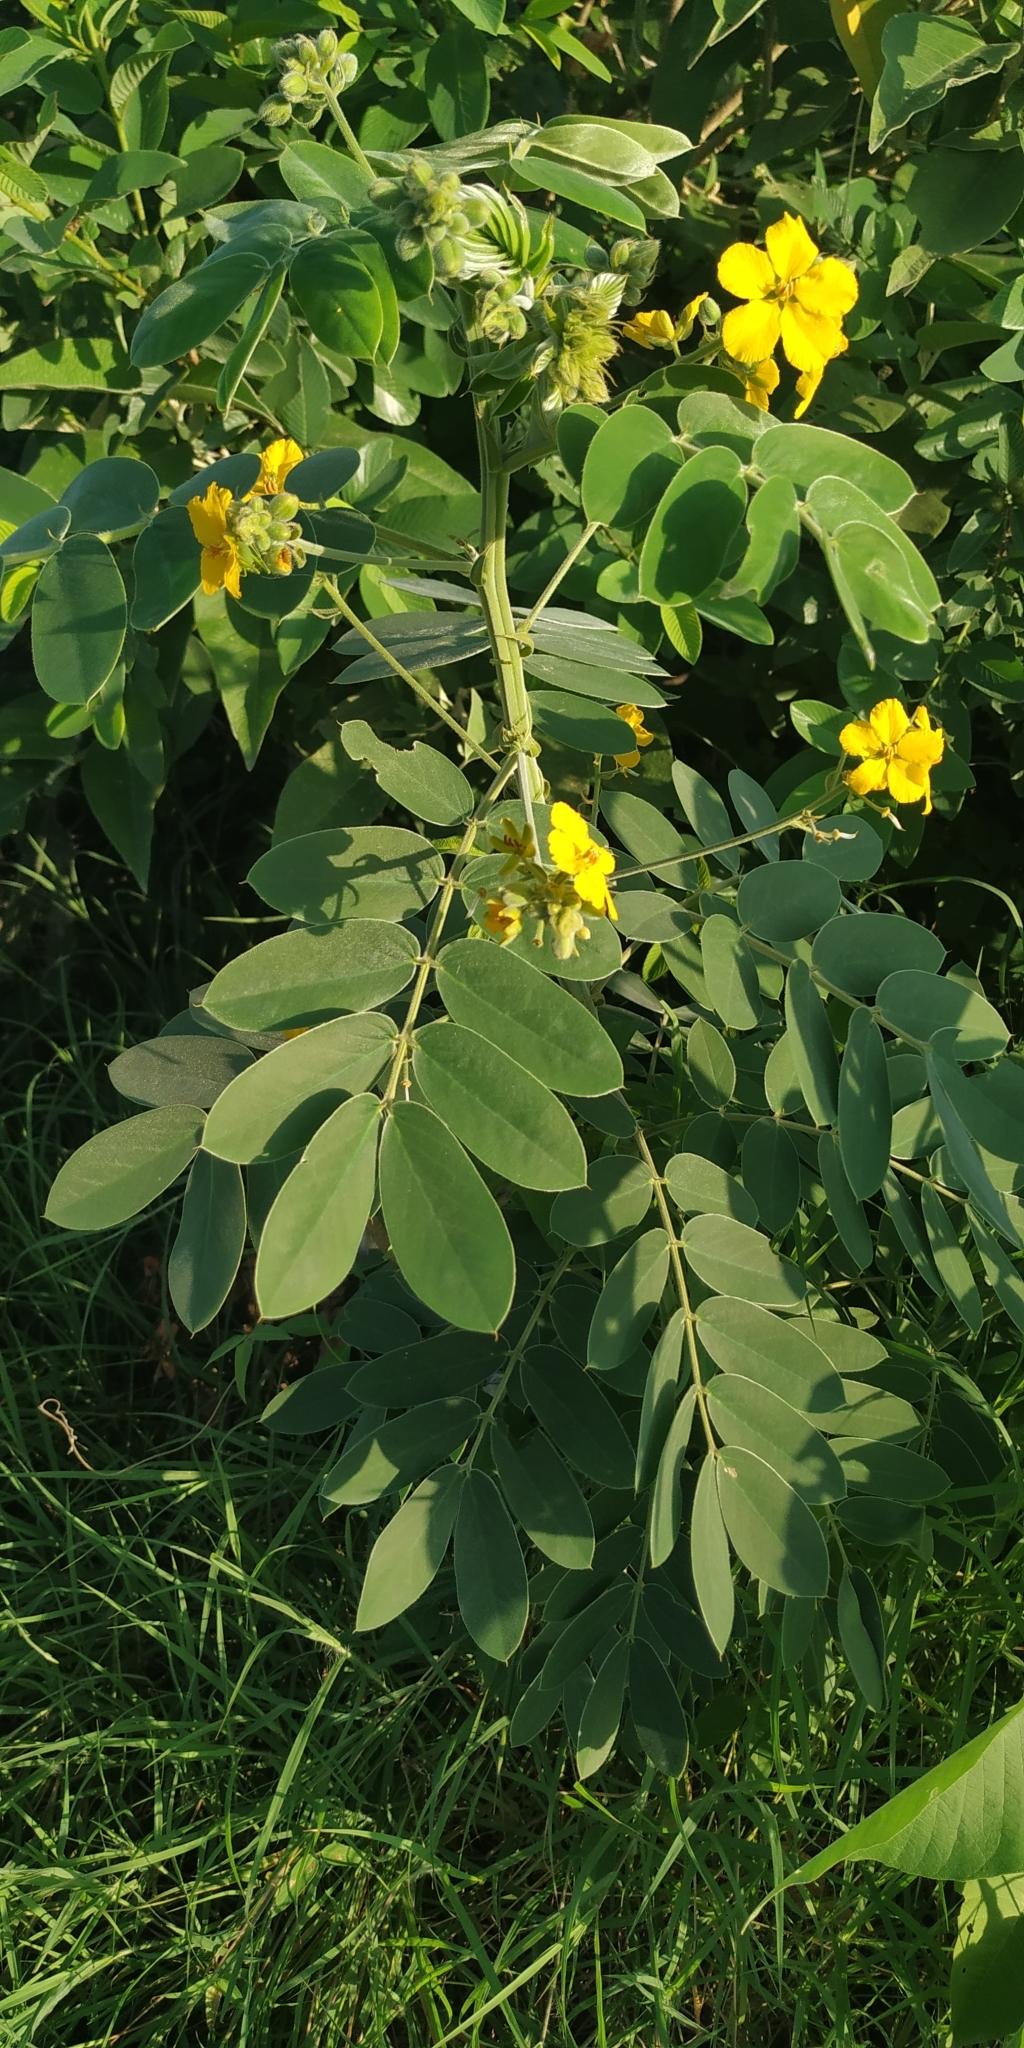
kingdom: Plantae
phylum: Tracheophyta
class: Magnoliopsida
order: Fabales
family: Fabaceae
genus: Senna
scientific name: Senna lindheimeriana
